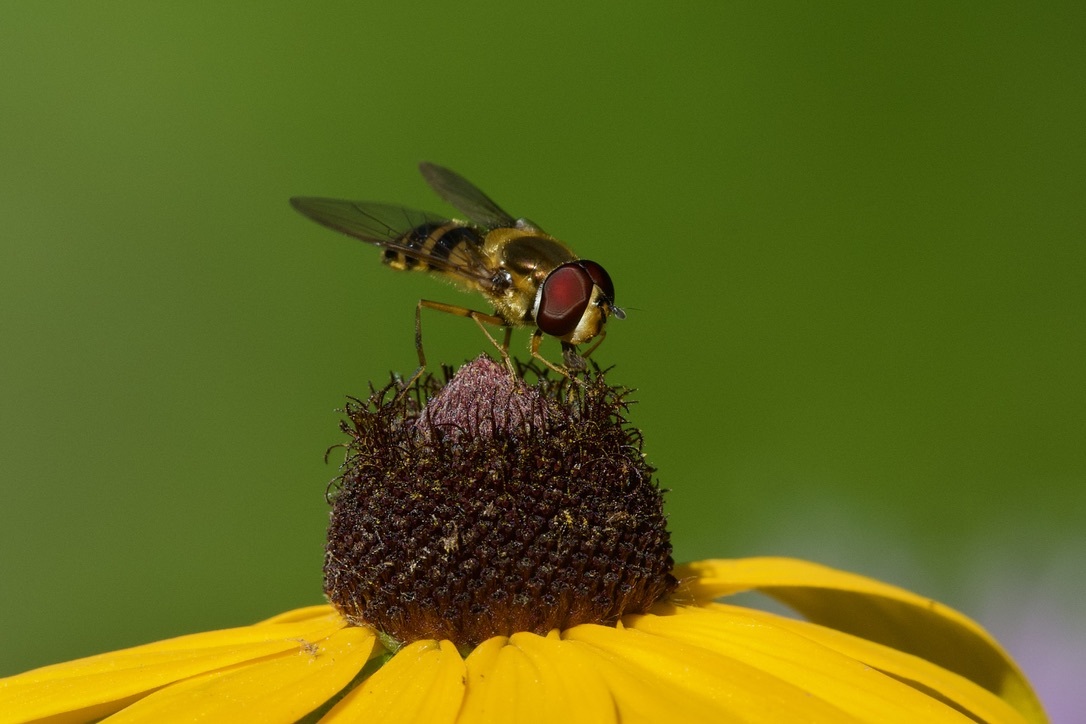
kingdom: Animalia
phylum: Arthropoda
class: Insecta
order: Diptera
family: Syrphidae
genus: Epistrophe
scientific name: Epistrophe grossulariae
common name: Black-horned smoothtail
